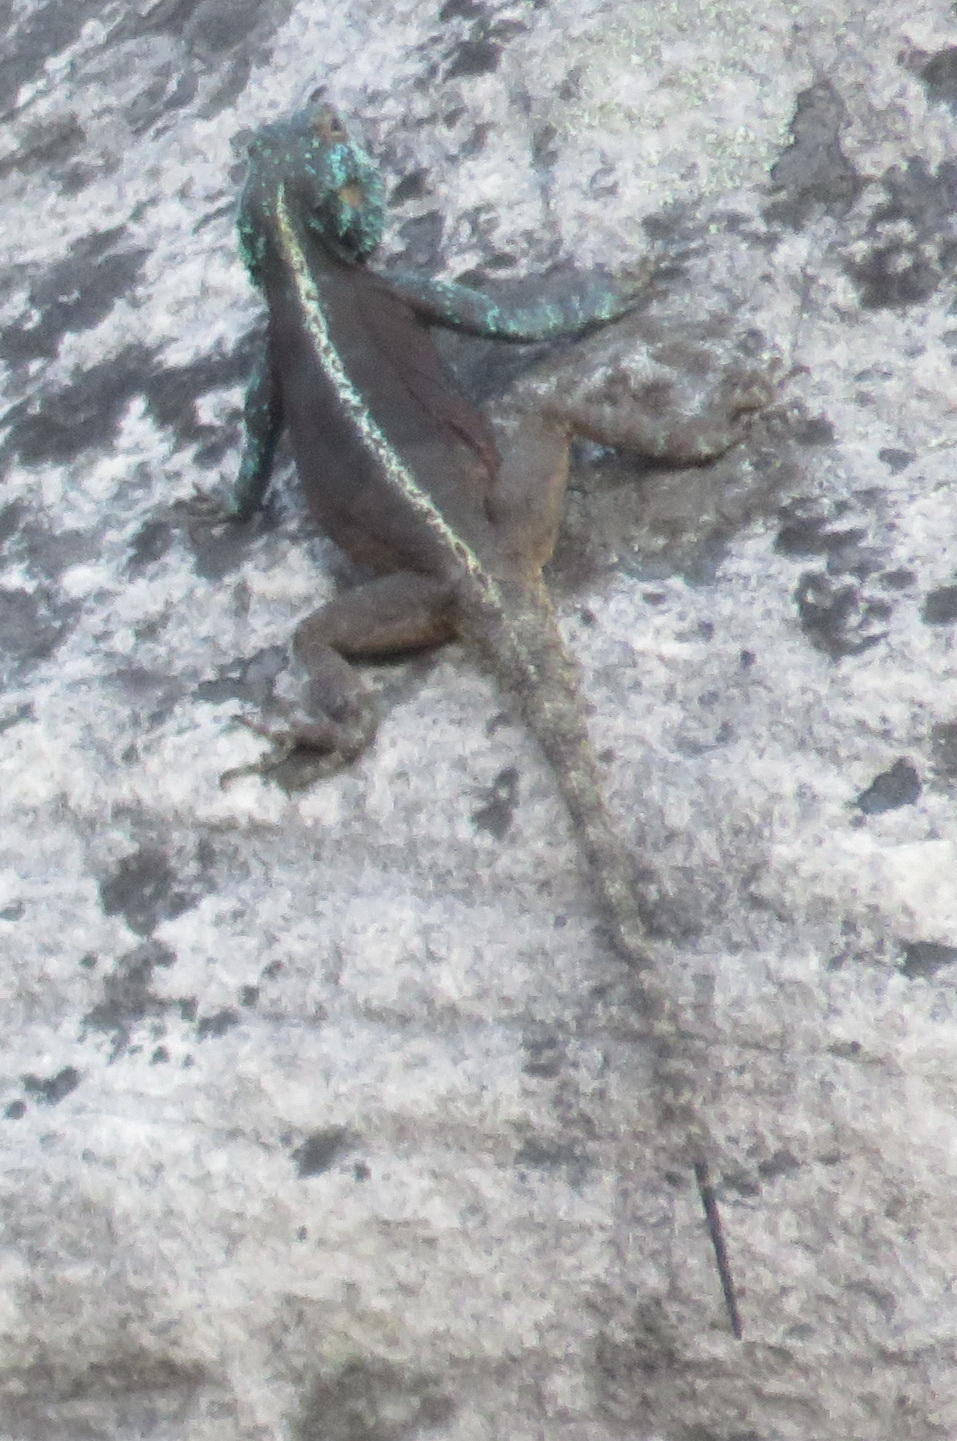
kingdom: Animalia
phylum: Chordata
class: Squamata
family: Agamidae
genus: Agama
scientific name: Agama atra
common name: Southern african rock agama
